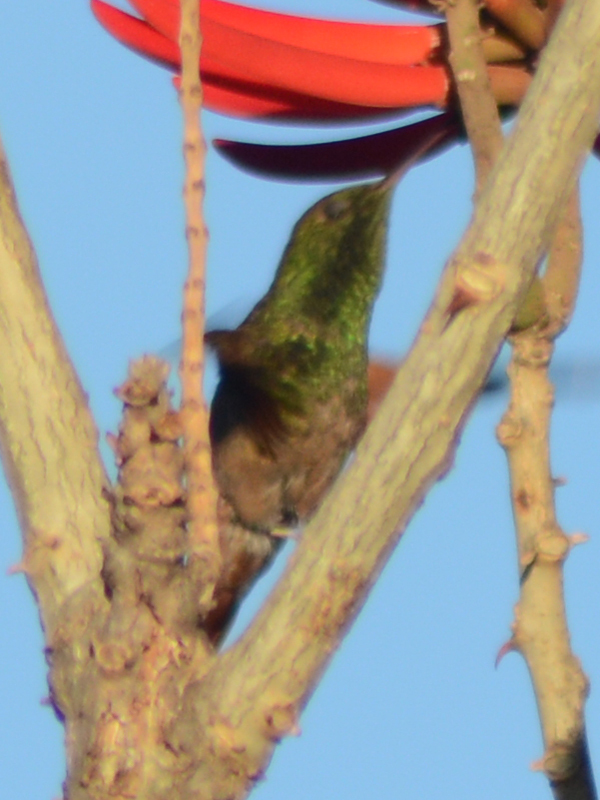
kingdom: Animalia
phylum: Chordata
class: Aves
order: Apodiformes
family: Trochilidae
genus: Saucerottia
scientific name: Saucerottia beryllina
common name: Berylline hummingbird
